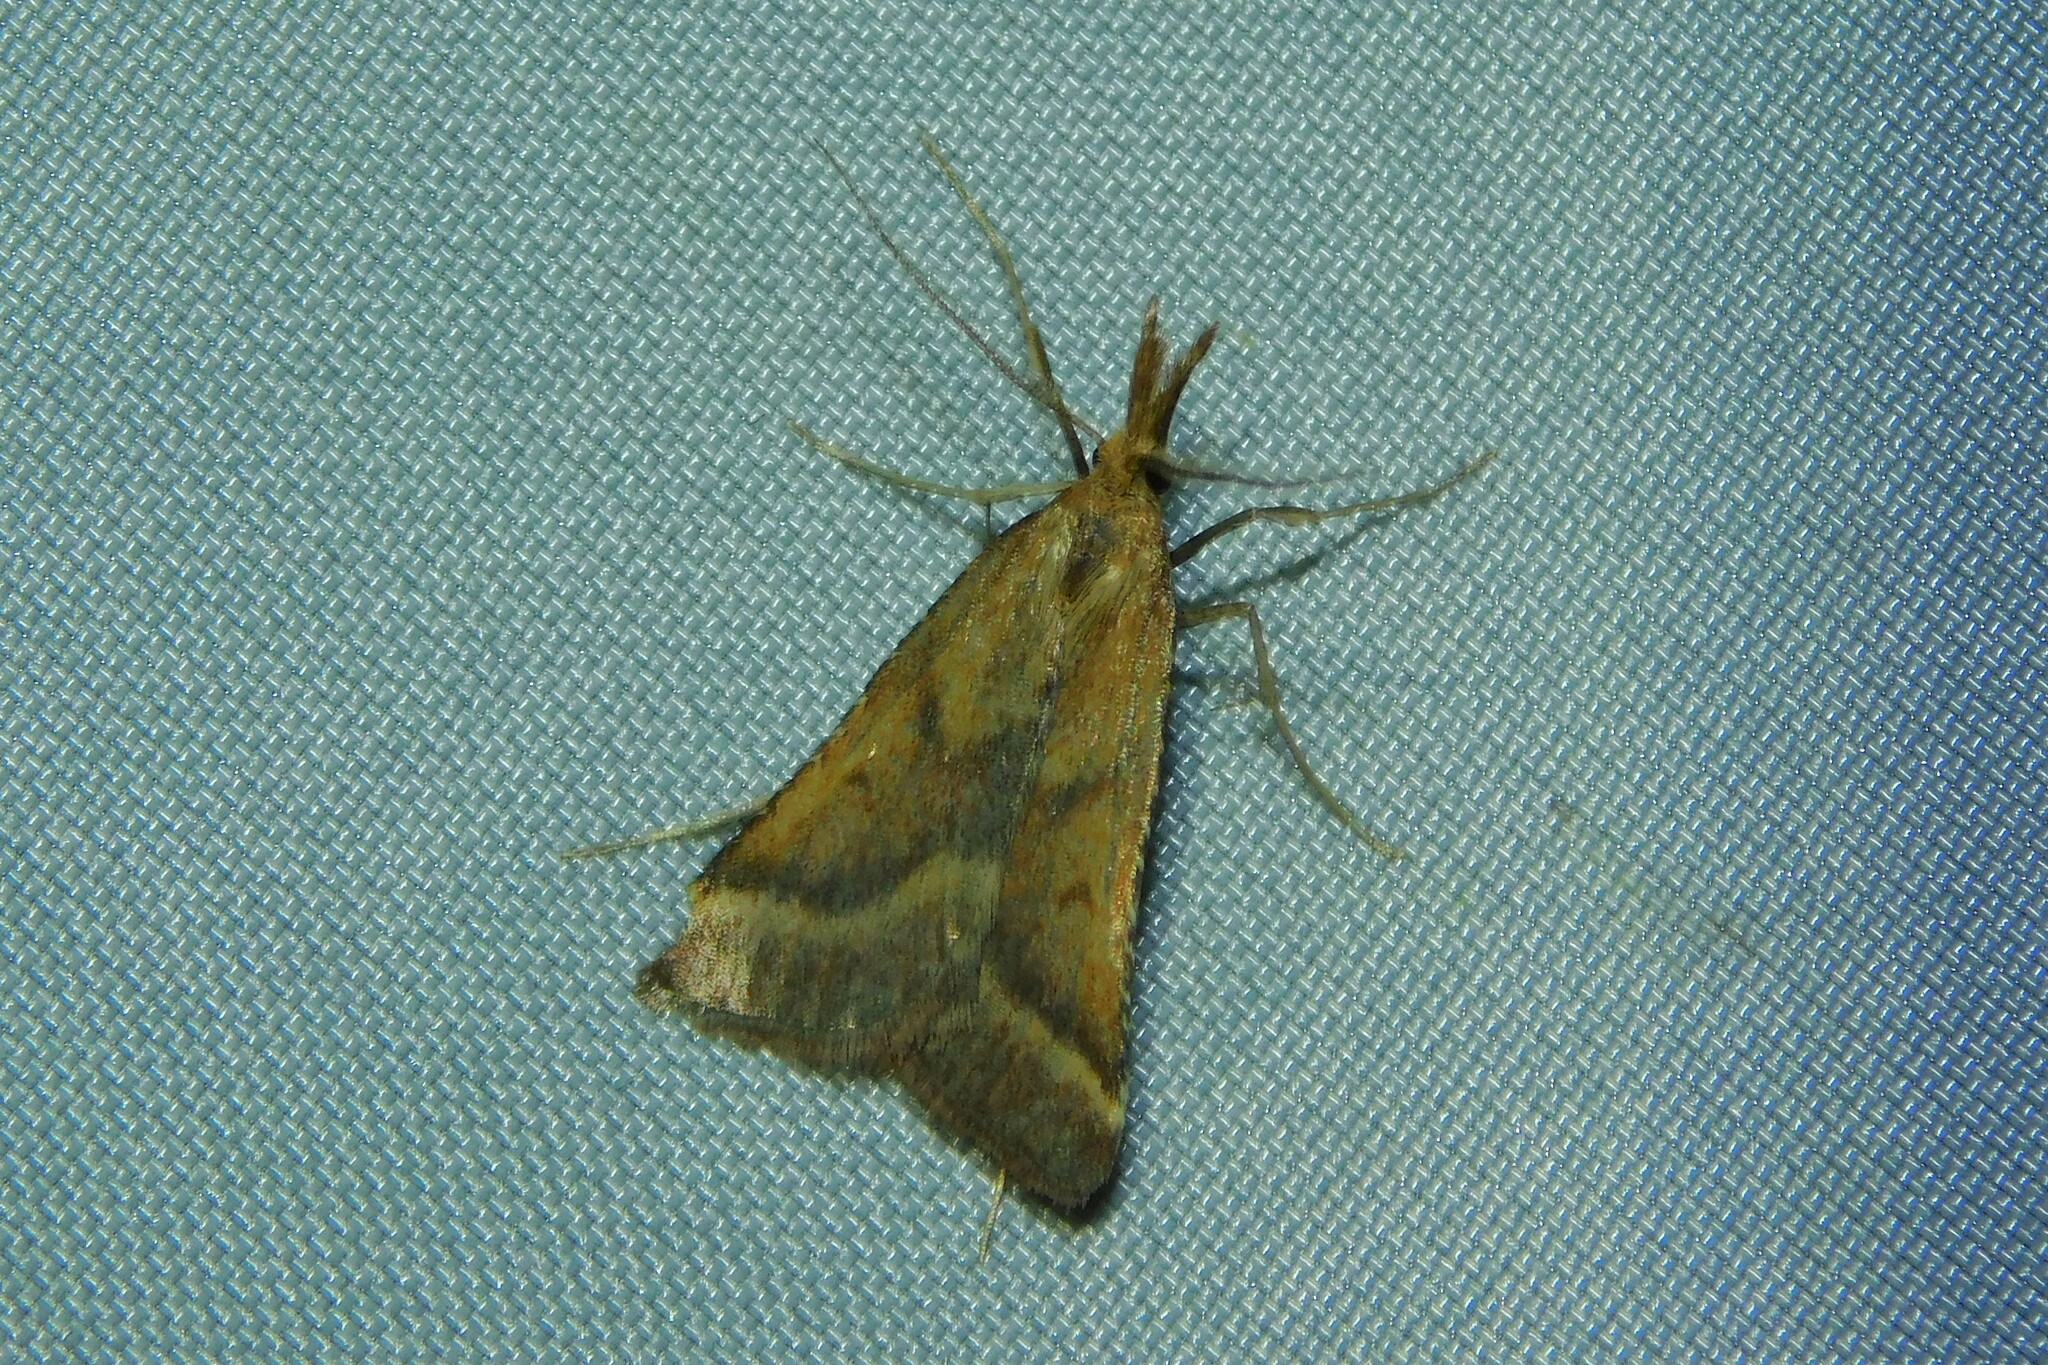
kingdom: Animalia
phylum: Arthropoda
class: Insecta
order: Lepidoptera
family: Pyralidae
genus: Synaphe
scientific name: Synaphe punctalis
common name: Long-legged tabby
